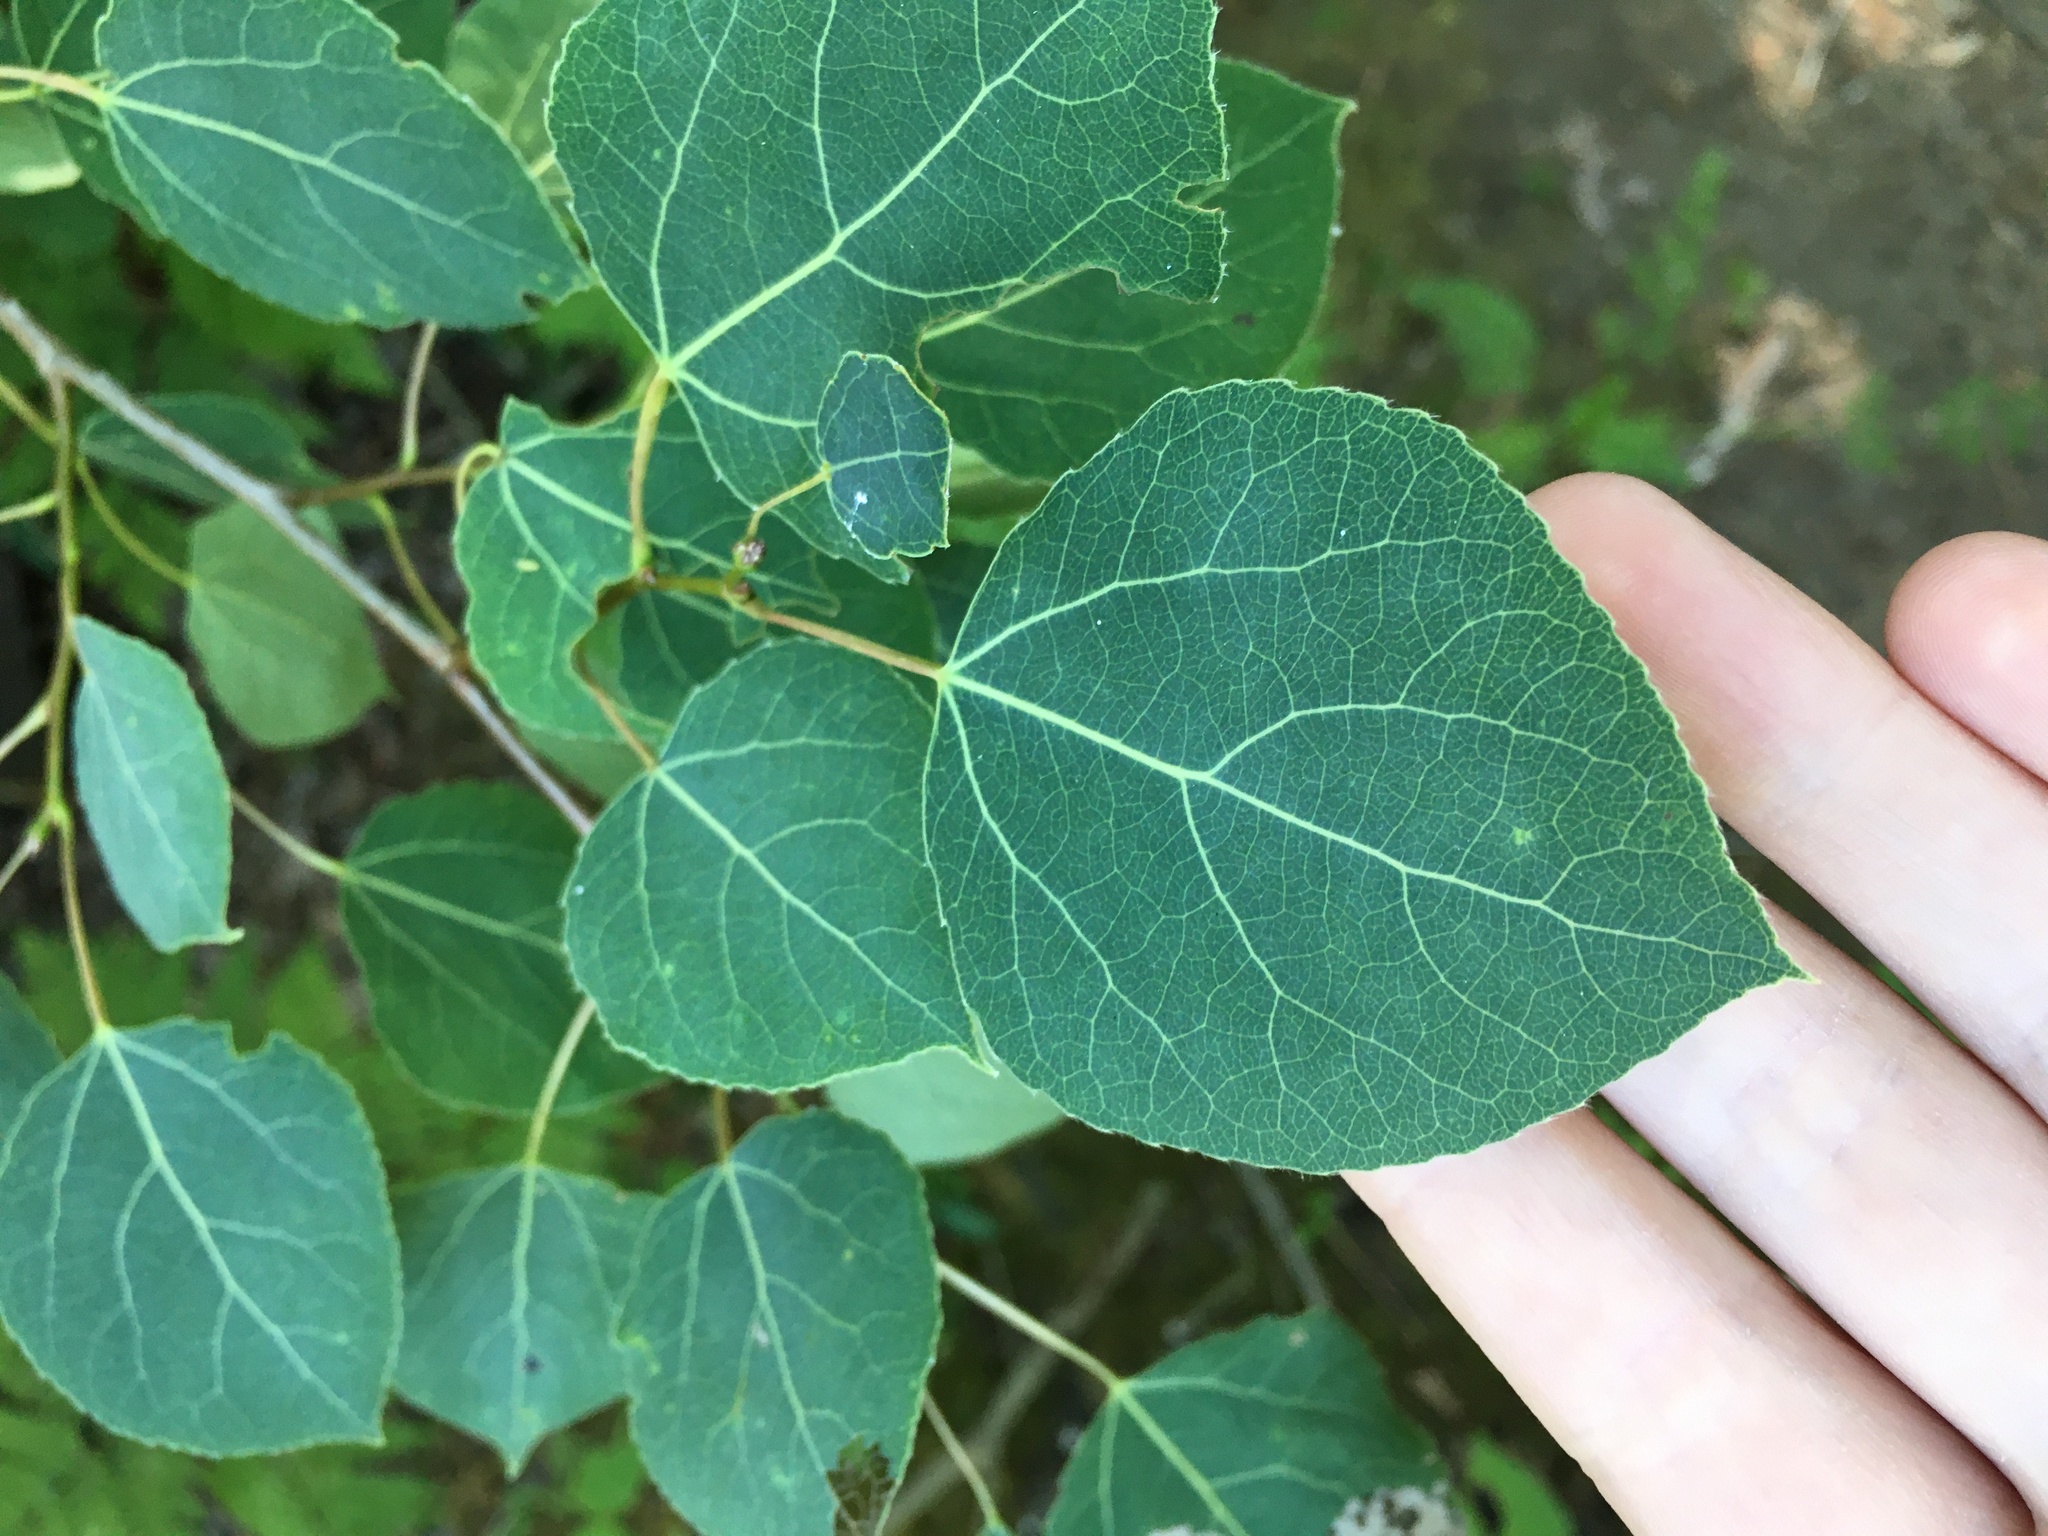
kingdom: Plantae
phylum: Tracheophyta
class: Magnoliopsida
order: Malpighiales
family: Salicaceae
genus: Populus
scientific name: Populus tremuloides
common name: Quaking aspen
